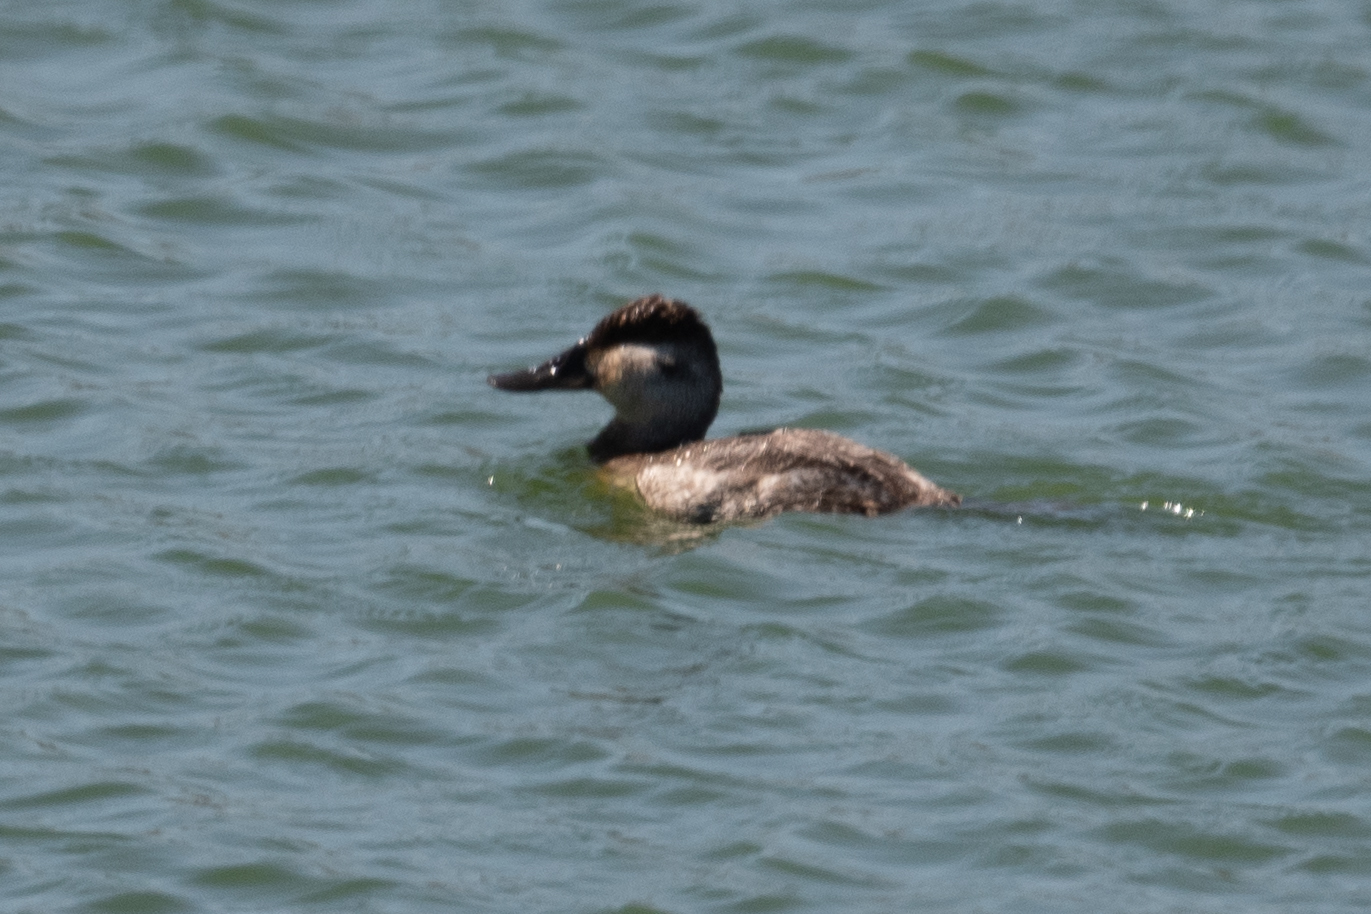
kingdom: Animalia
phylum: Chordata
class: Aves
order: Anseriformes
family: Anatidae
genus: Oxyura
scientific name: Oxyura jamaicensis
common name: Ruddy duck
